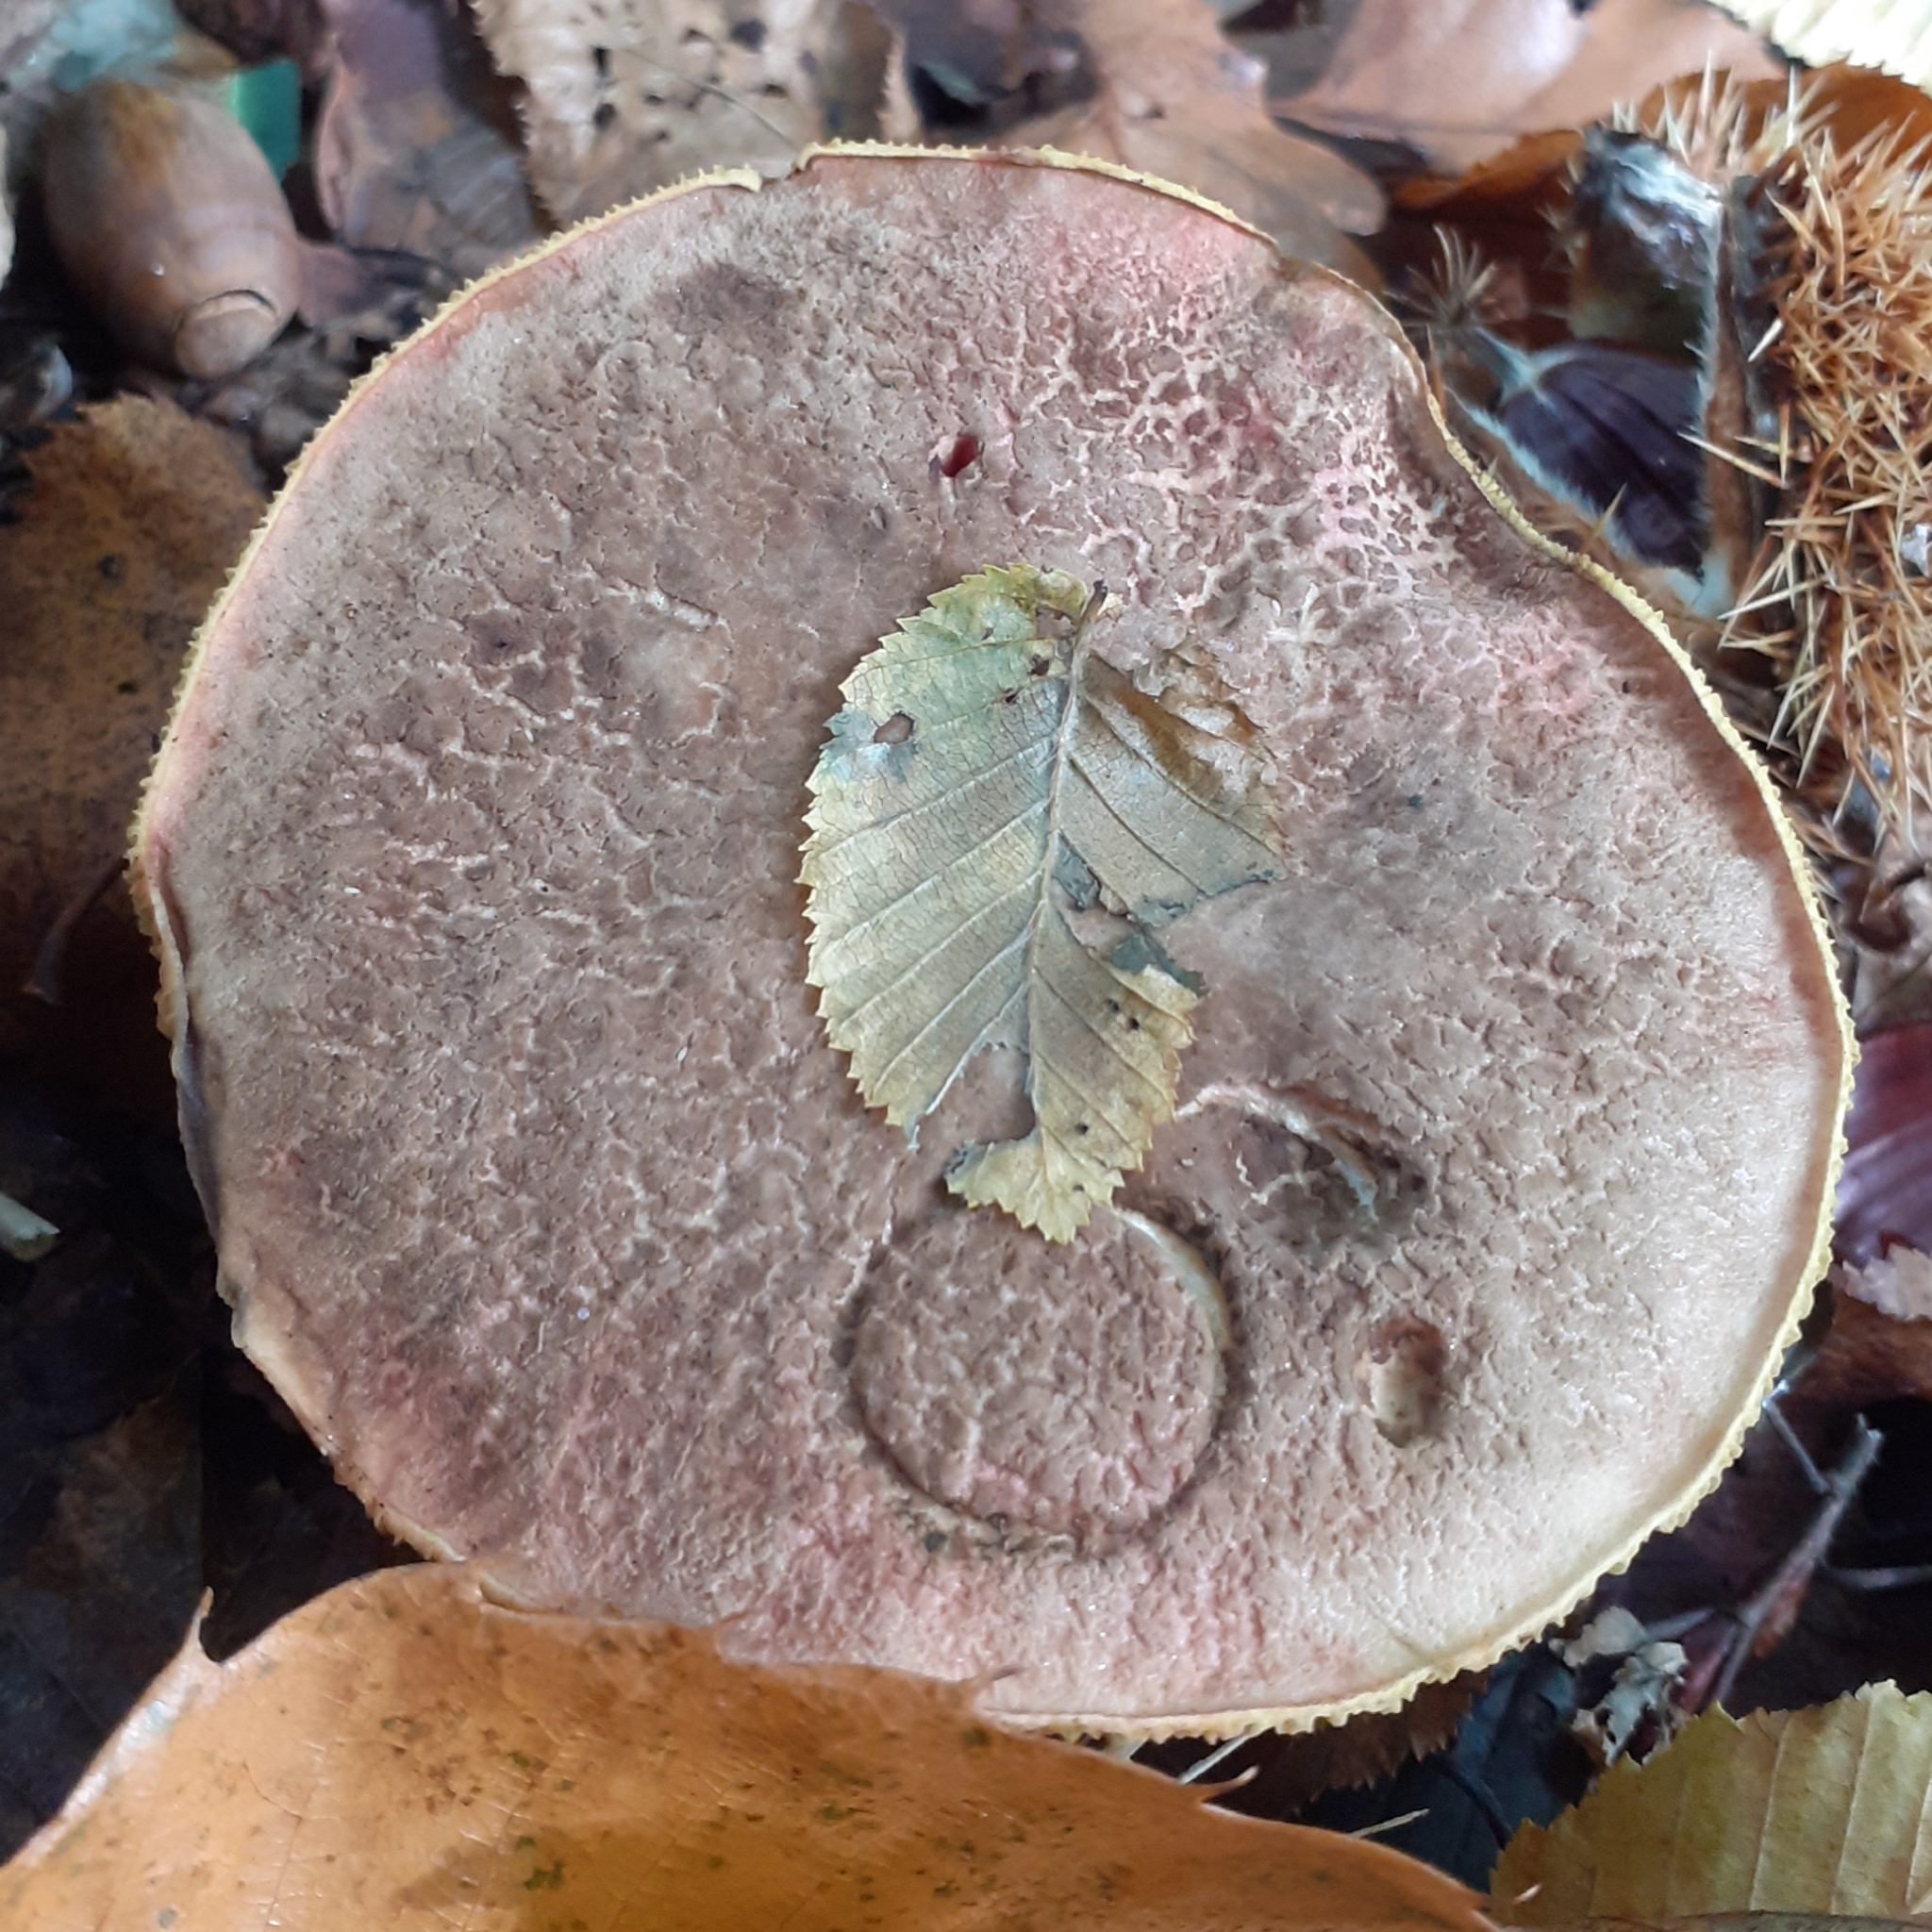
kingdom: Fungi
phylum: Basidiomycota
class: Agaricomycetes
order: Boletales
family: Boletaceae
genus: Xerocomellus
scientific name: Xerocomellus chrysenteron
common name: Red-cracking bolete
